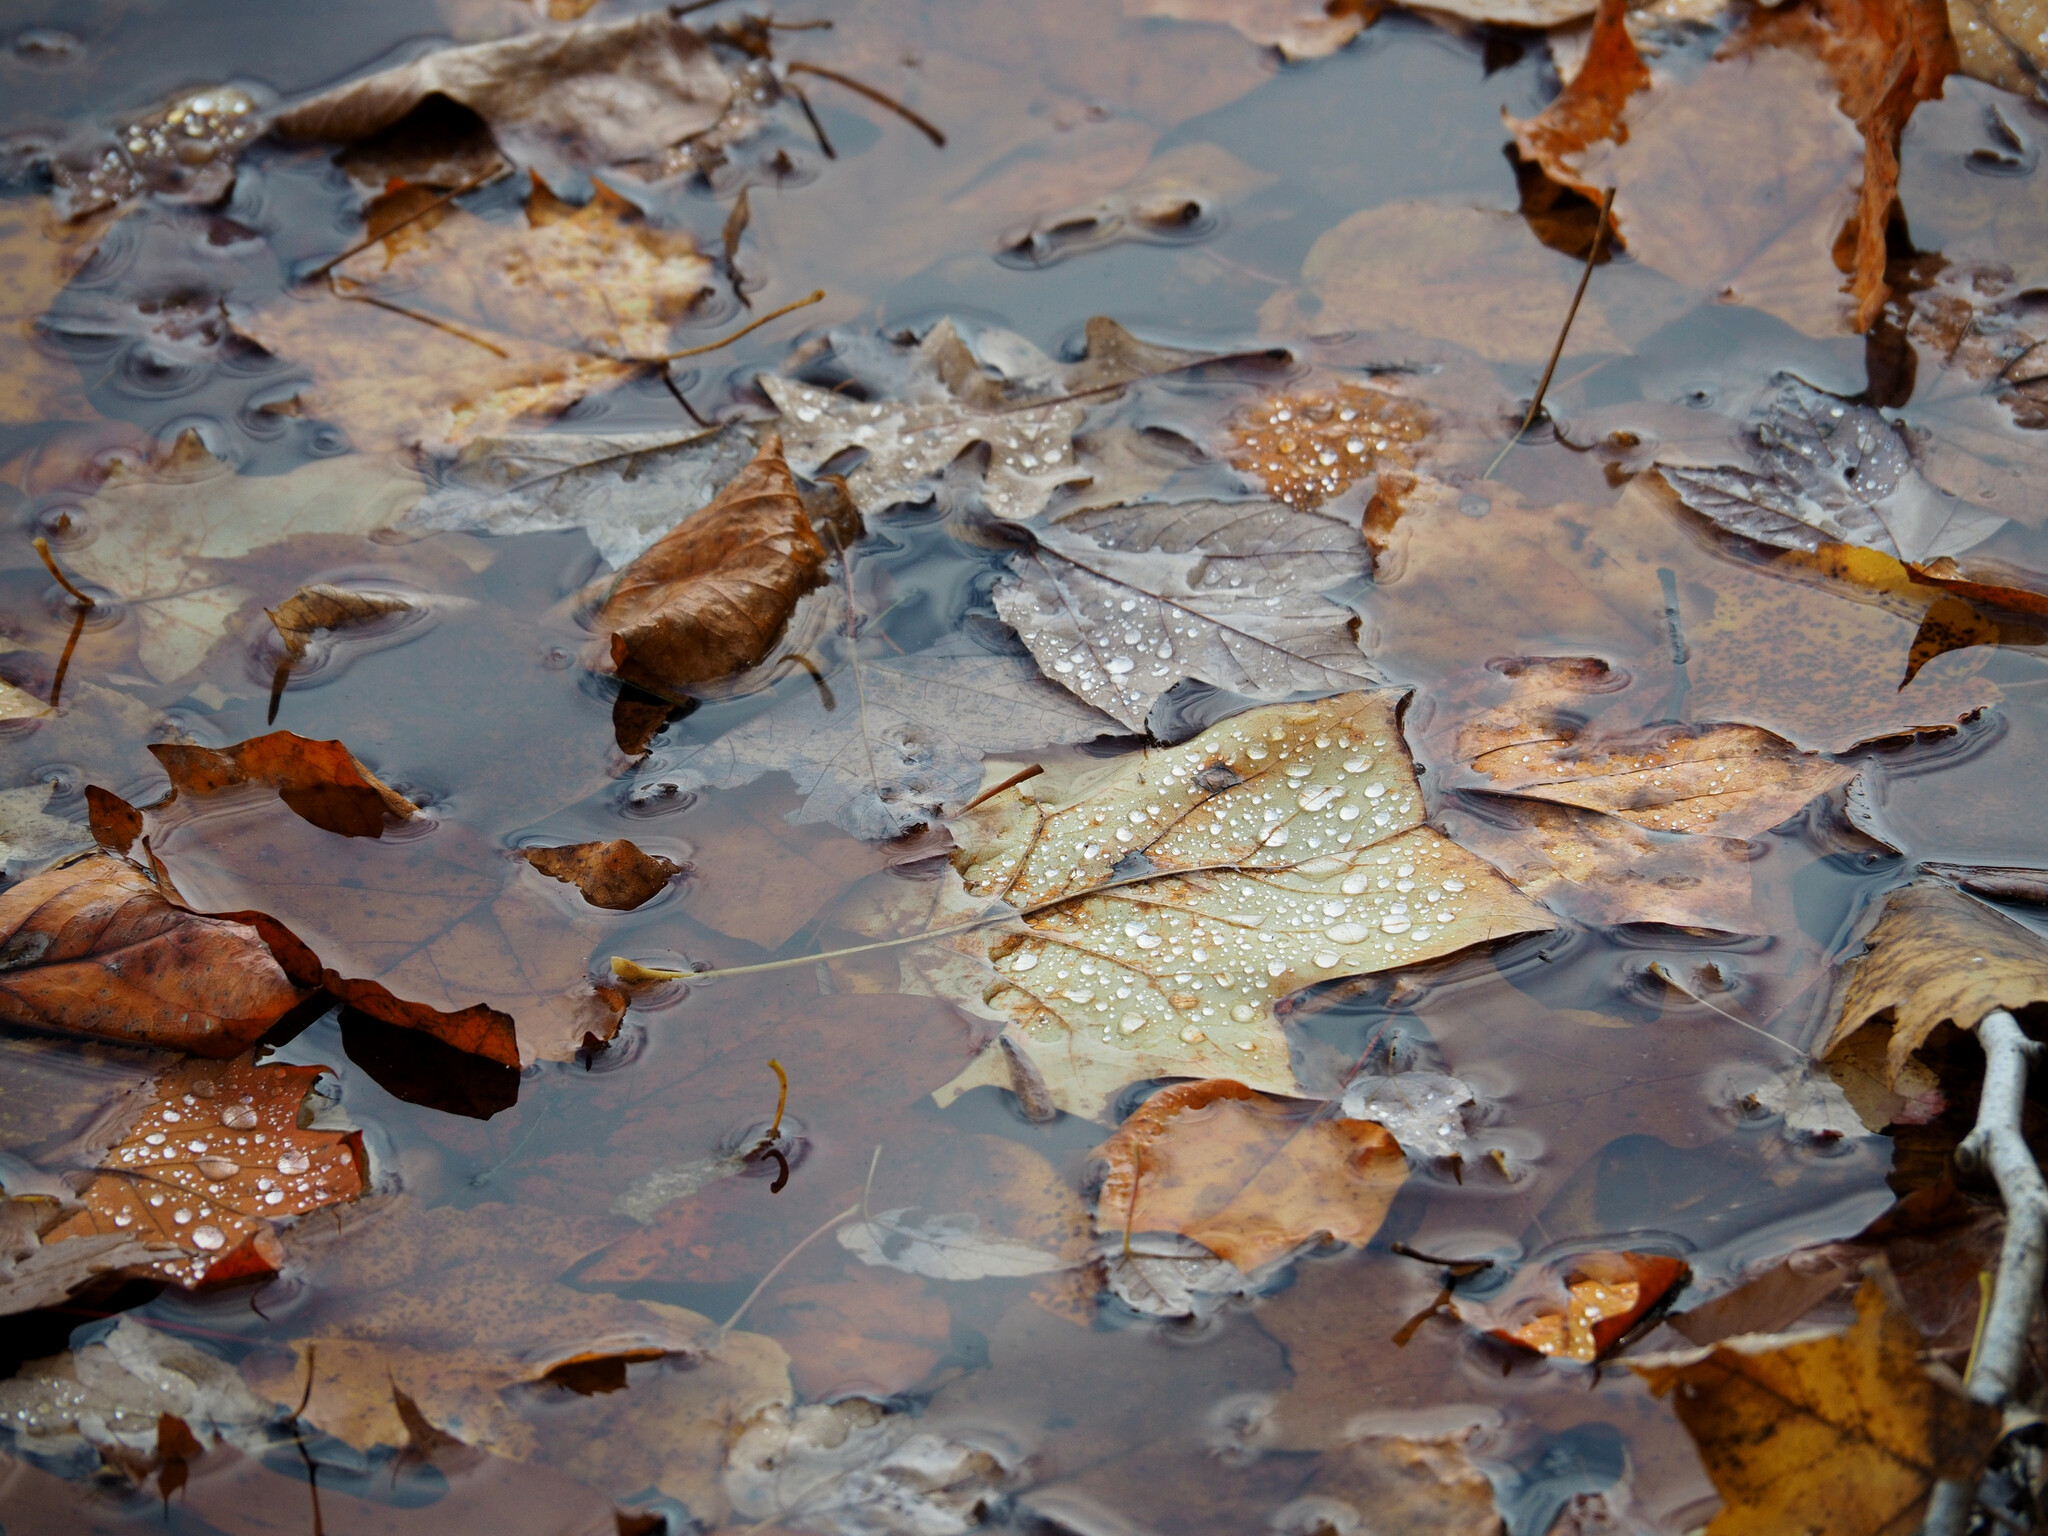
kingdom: Plantae
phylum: Tracheophyta
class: Magnoliopsida
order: Magnoliales
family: Magnoliaceae
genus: Liriodendron
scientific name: Liriodendron tulipifera
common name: Tulip tree
